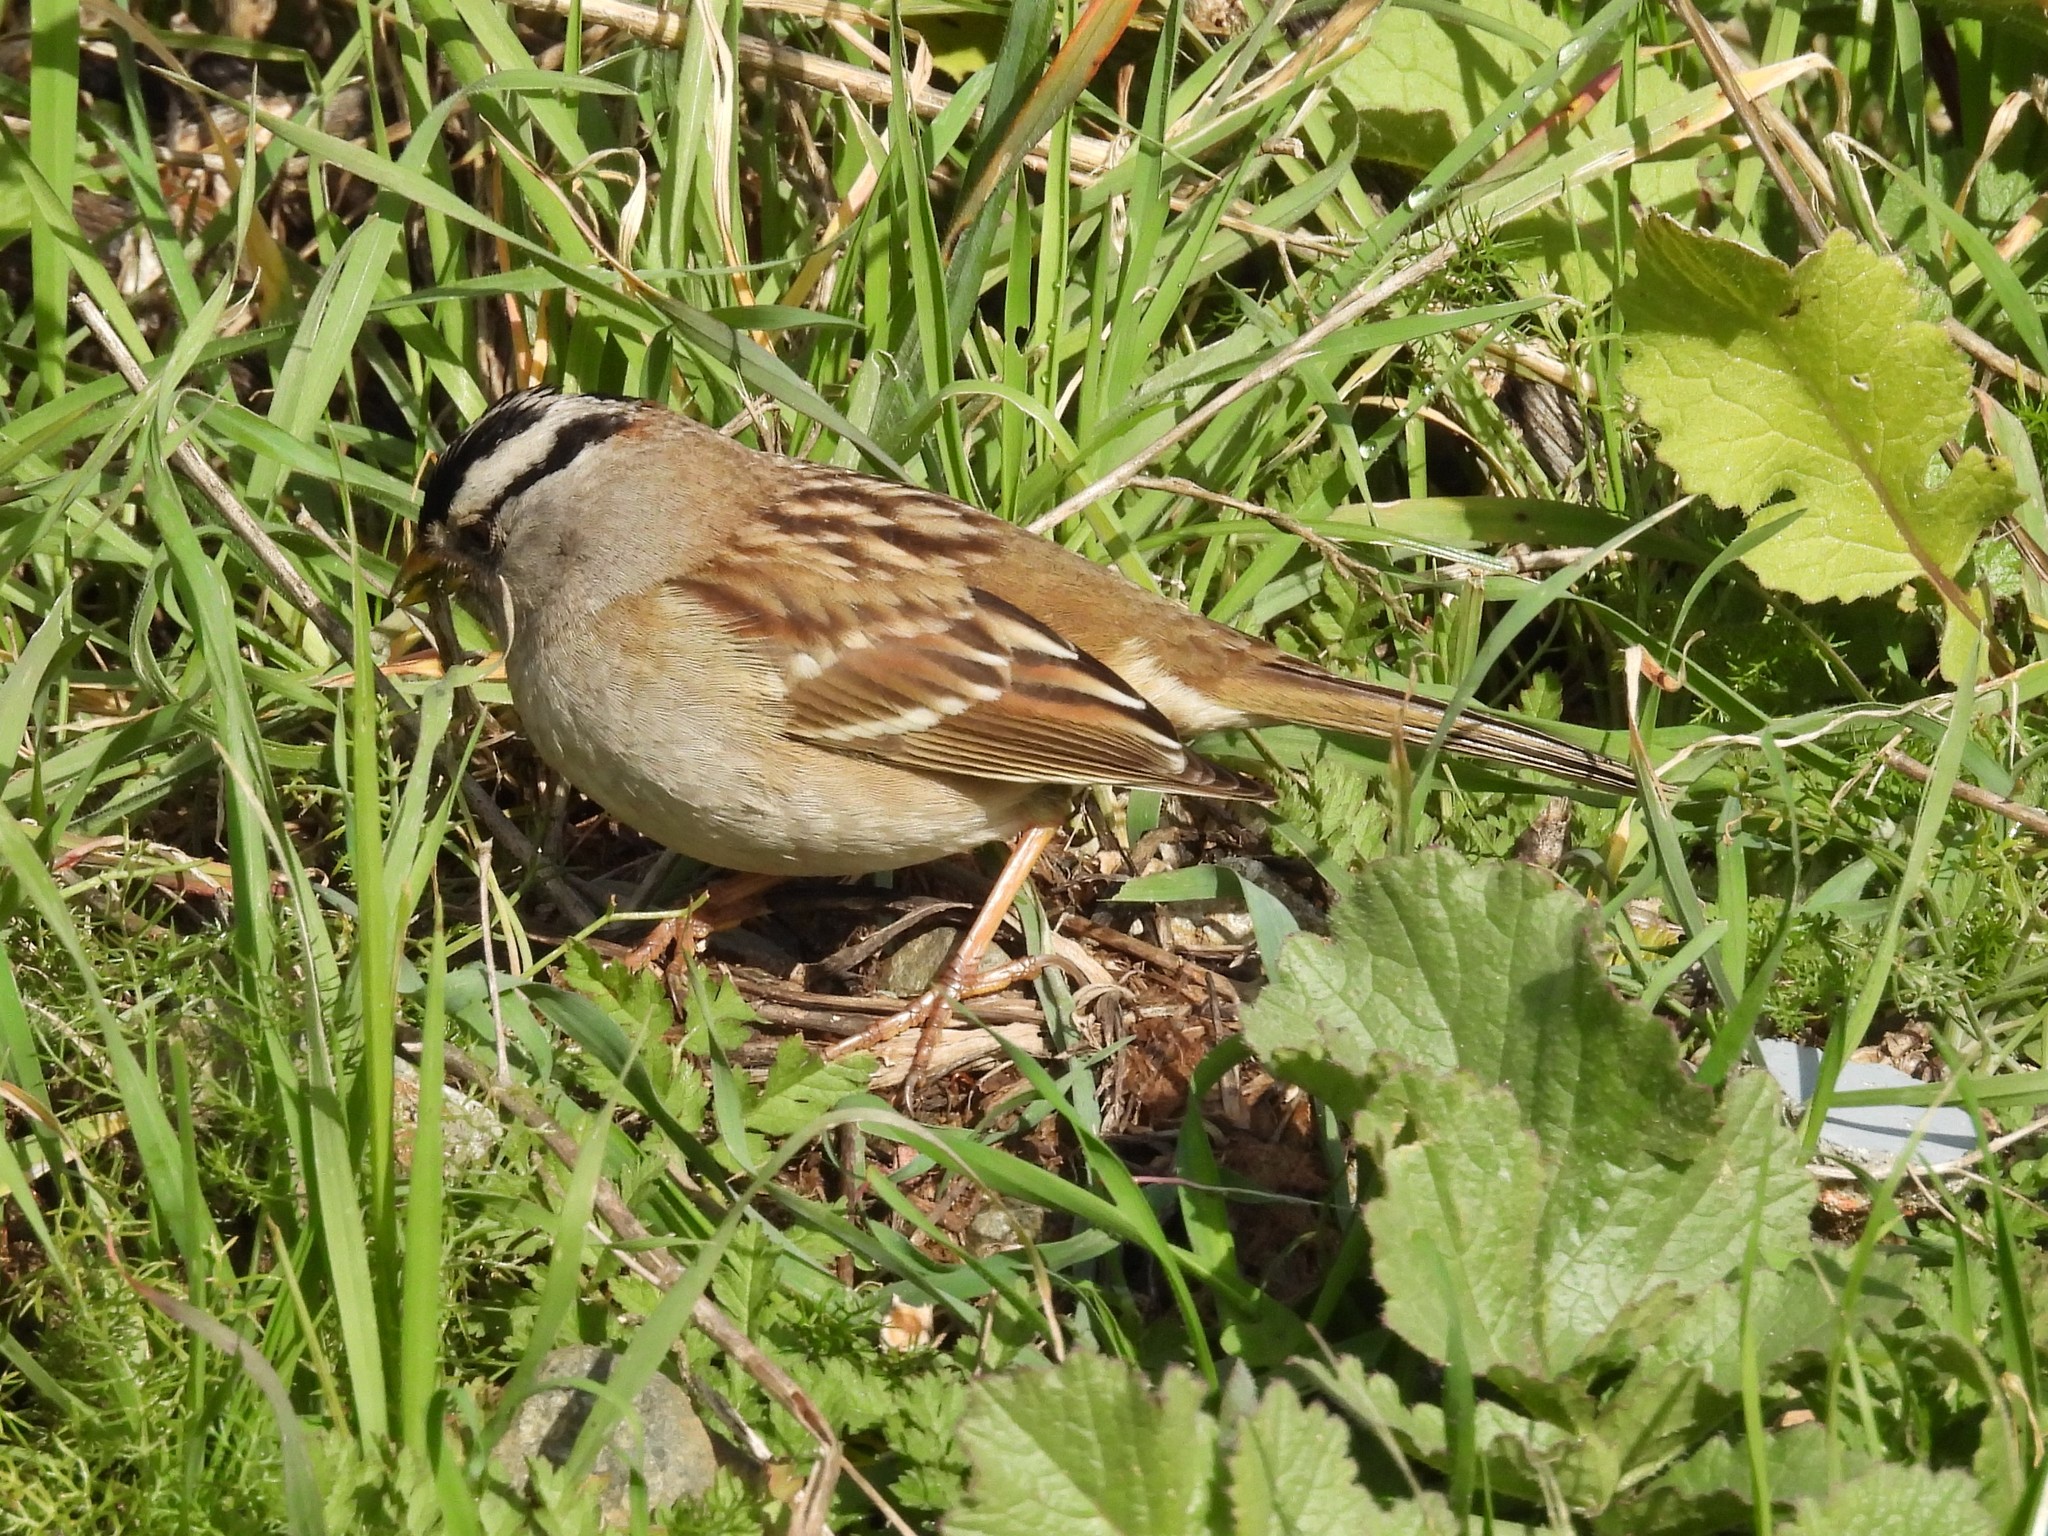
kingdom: Animalia
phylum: Chordata
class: Aves
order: Passeriformes
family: Passerellidae
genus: Zonotrichia
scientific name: Zonotrichia leucophrys
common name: White-crowned sparrow
